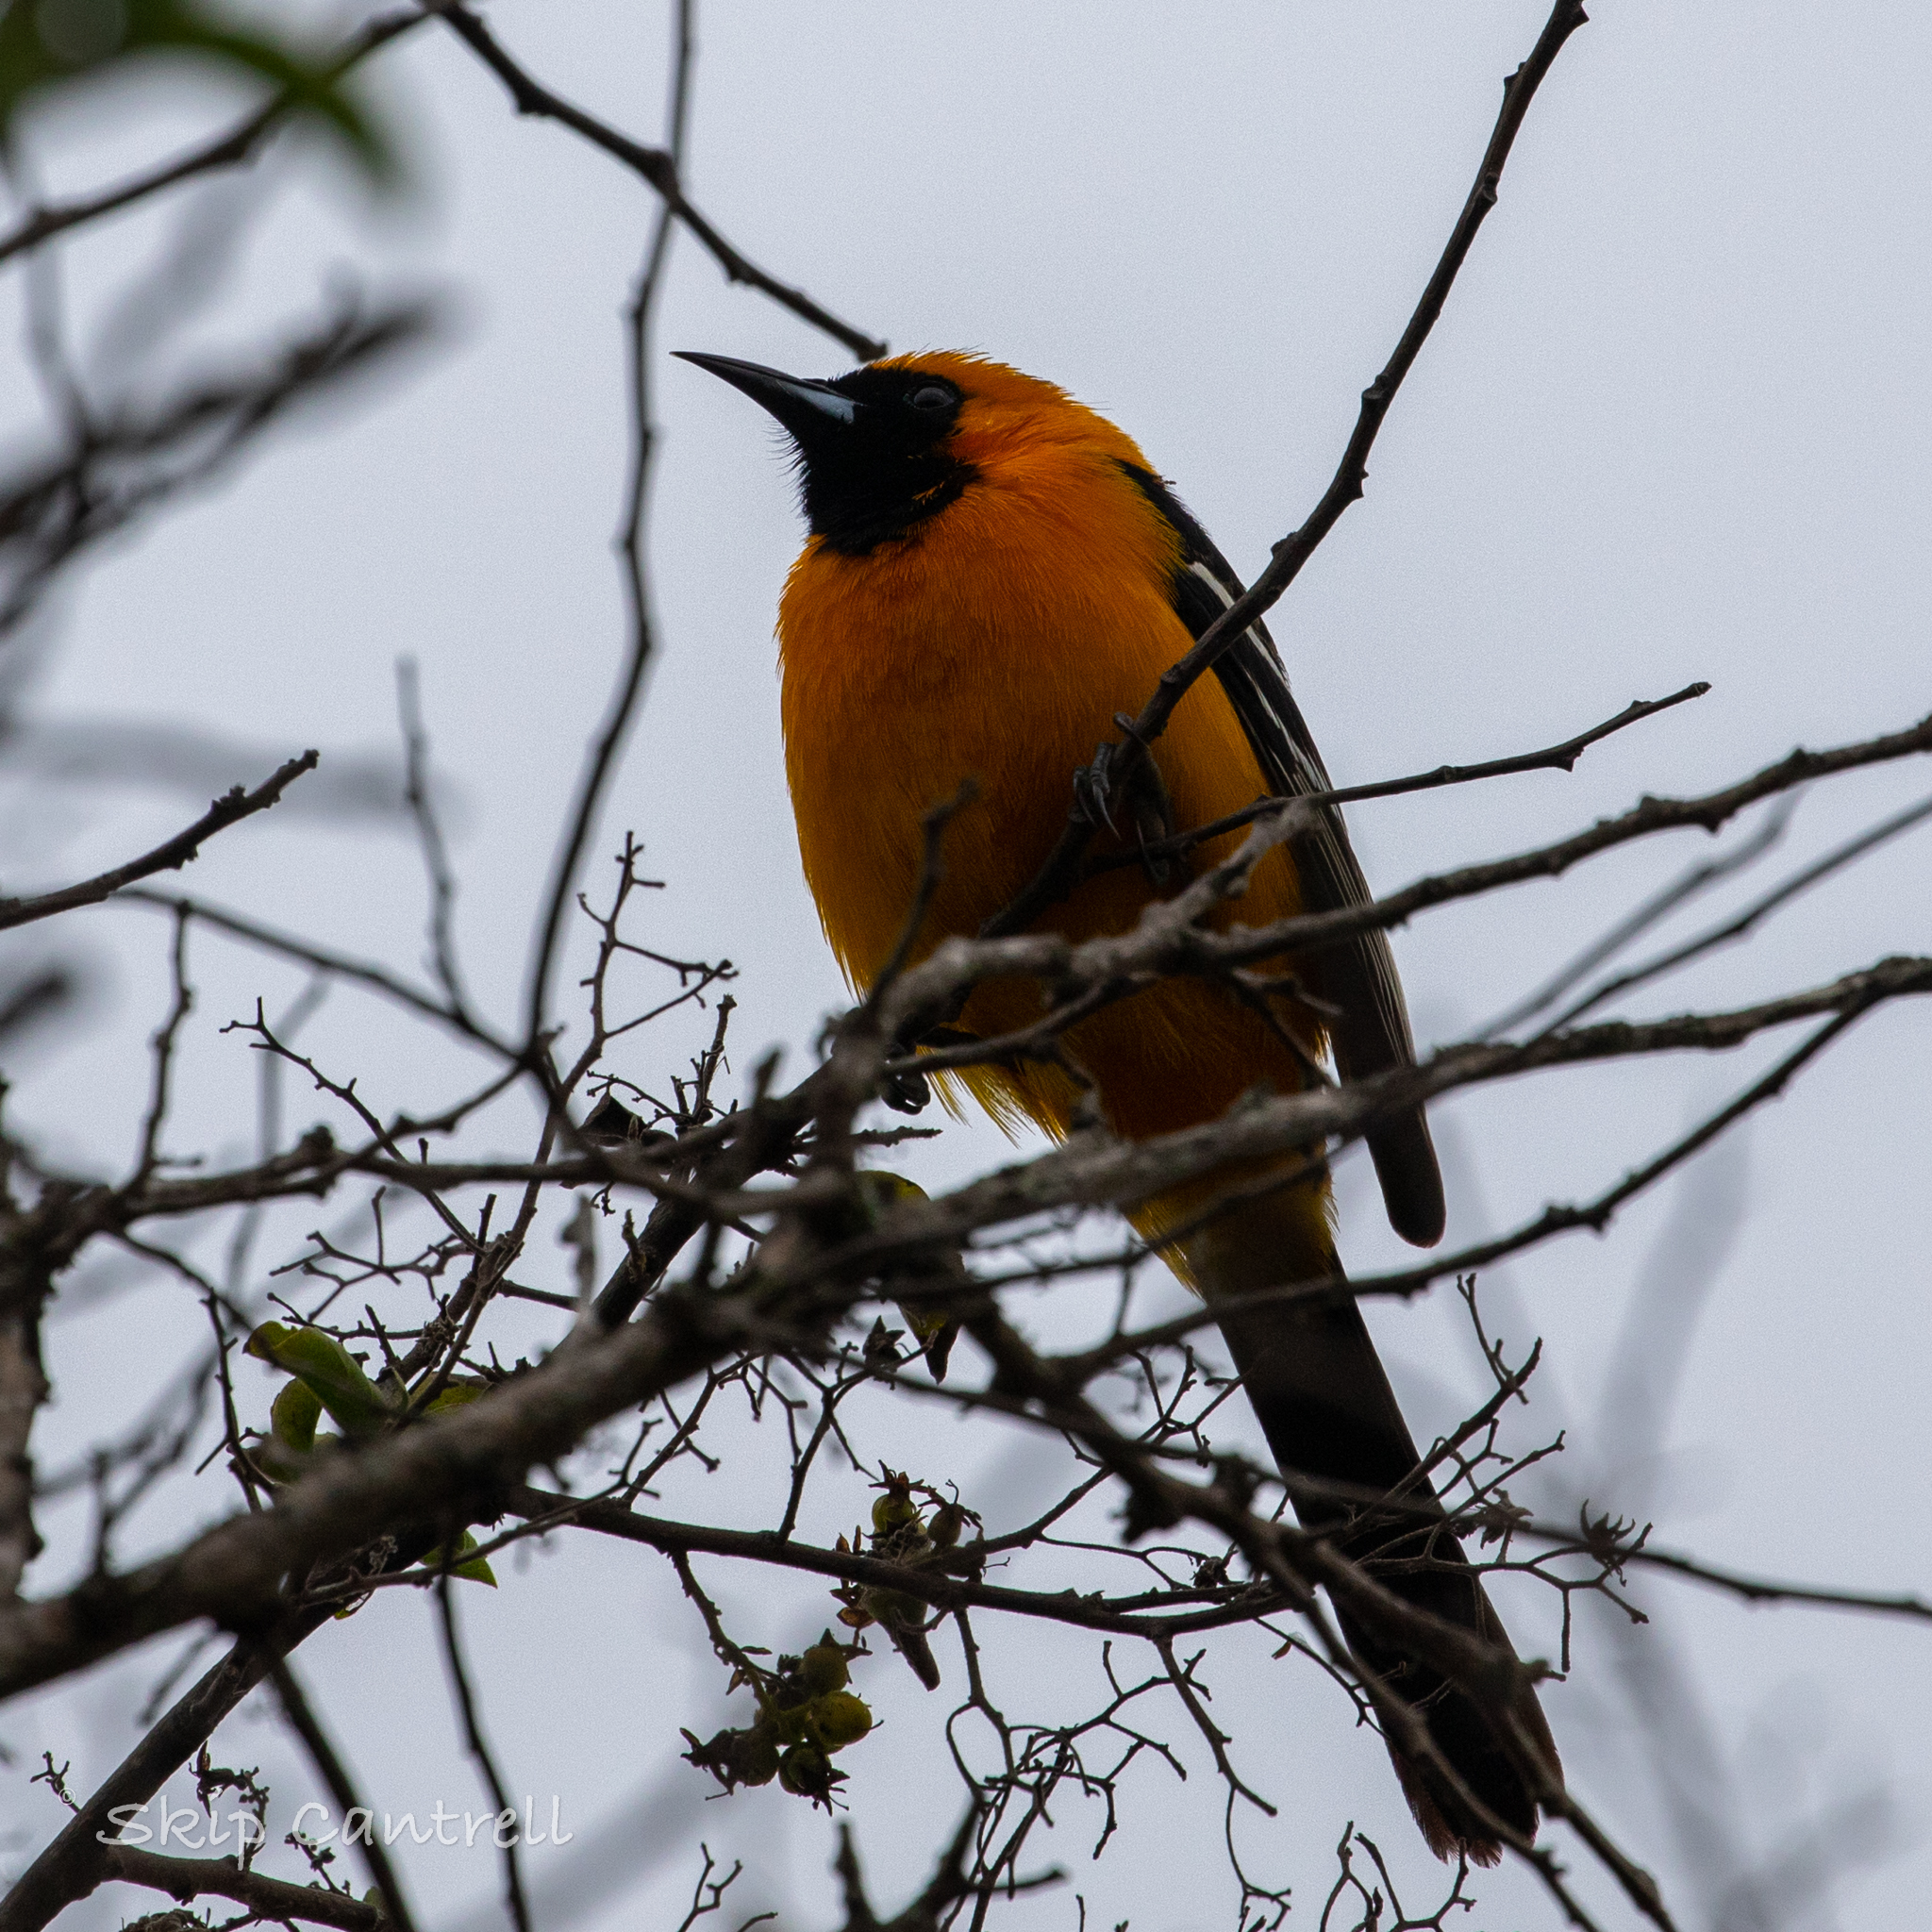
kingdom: Animalia
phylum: Chordata
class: Aves
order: Passeriformes
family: Icteridae
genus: Icterus
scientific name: Icterus cucullatus
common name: Hooded oriole
